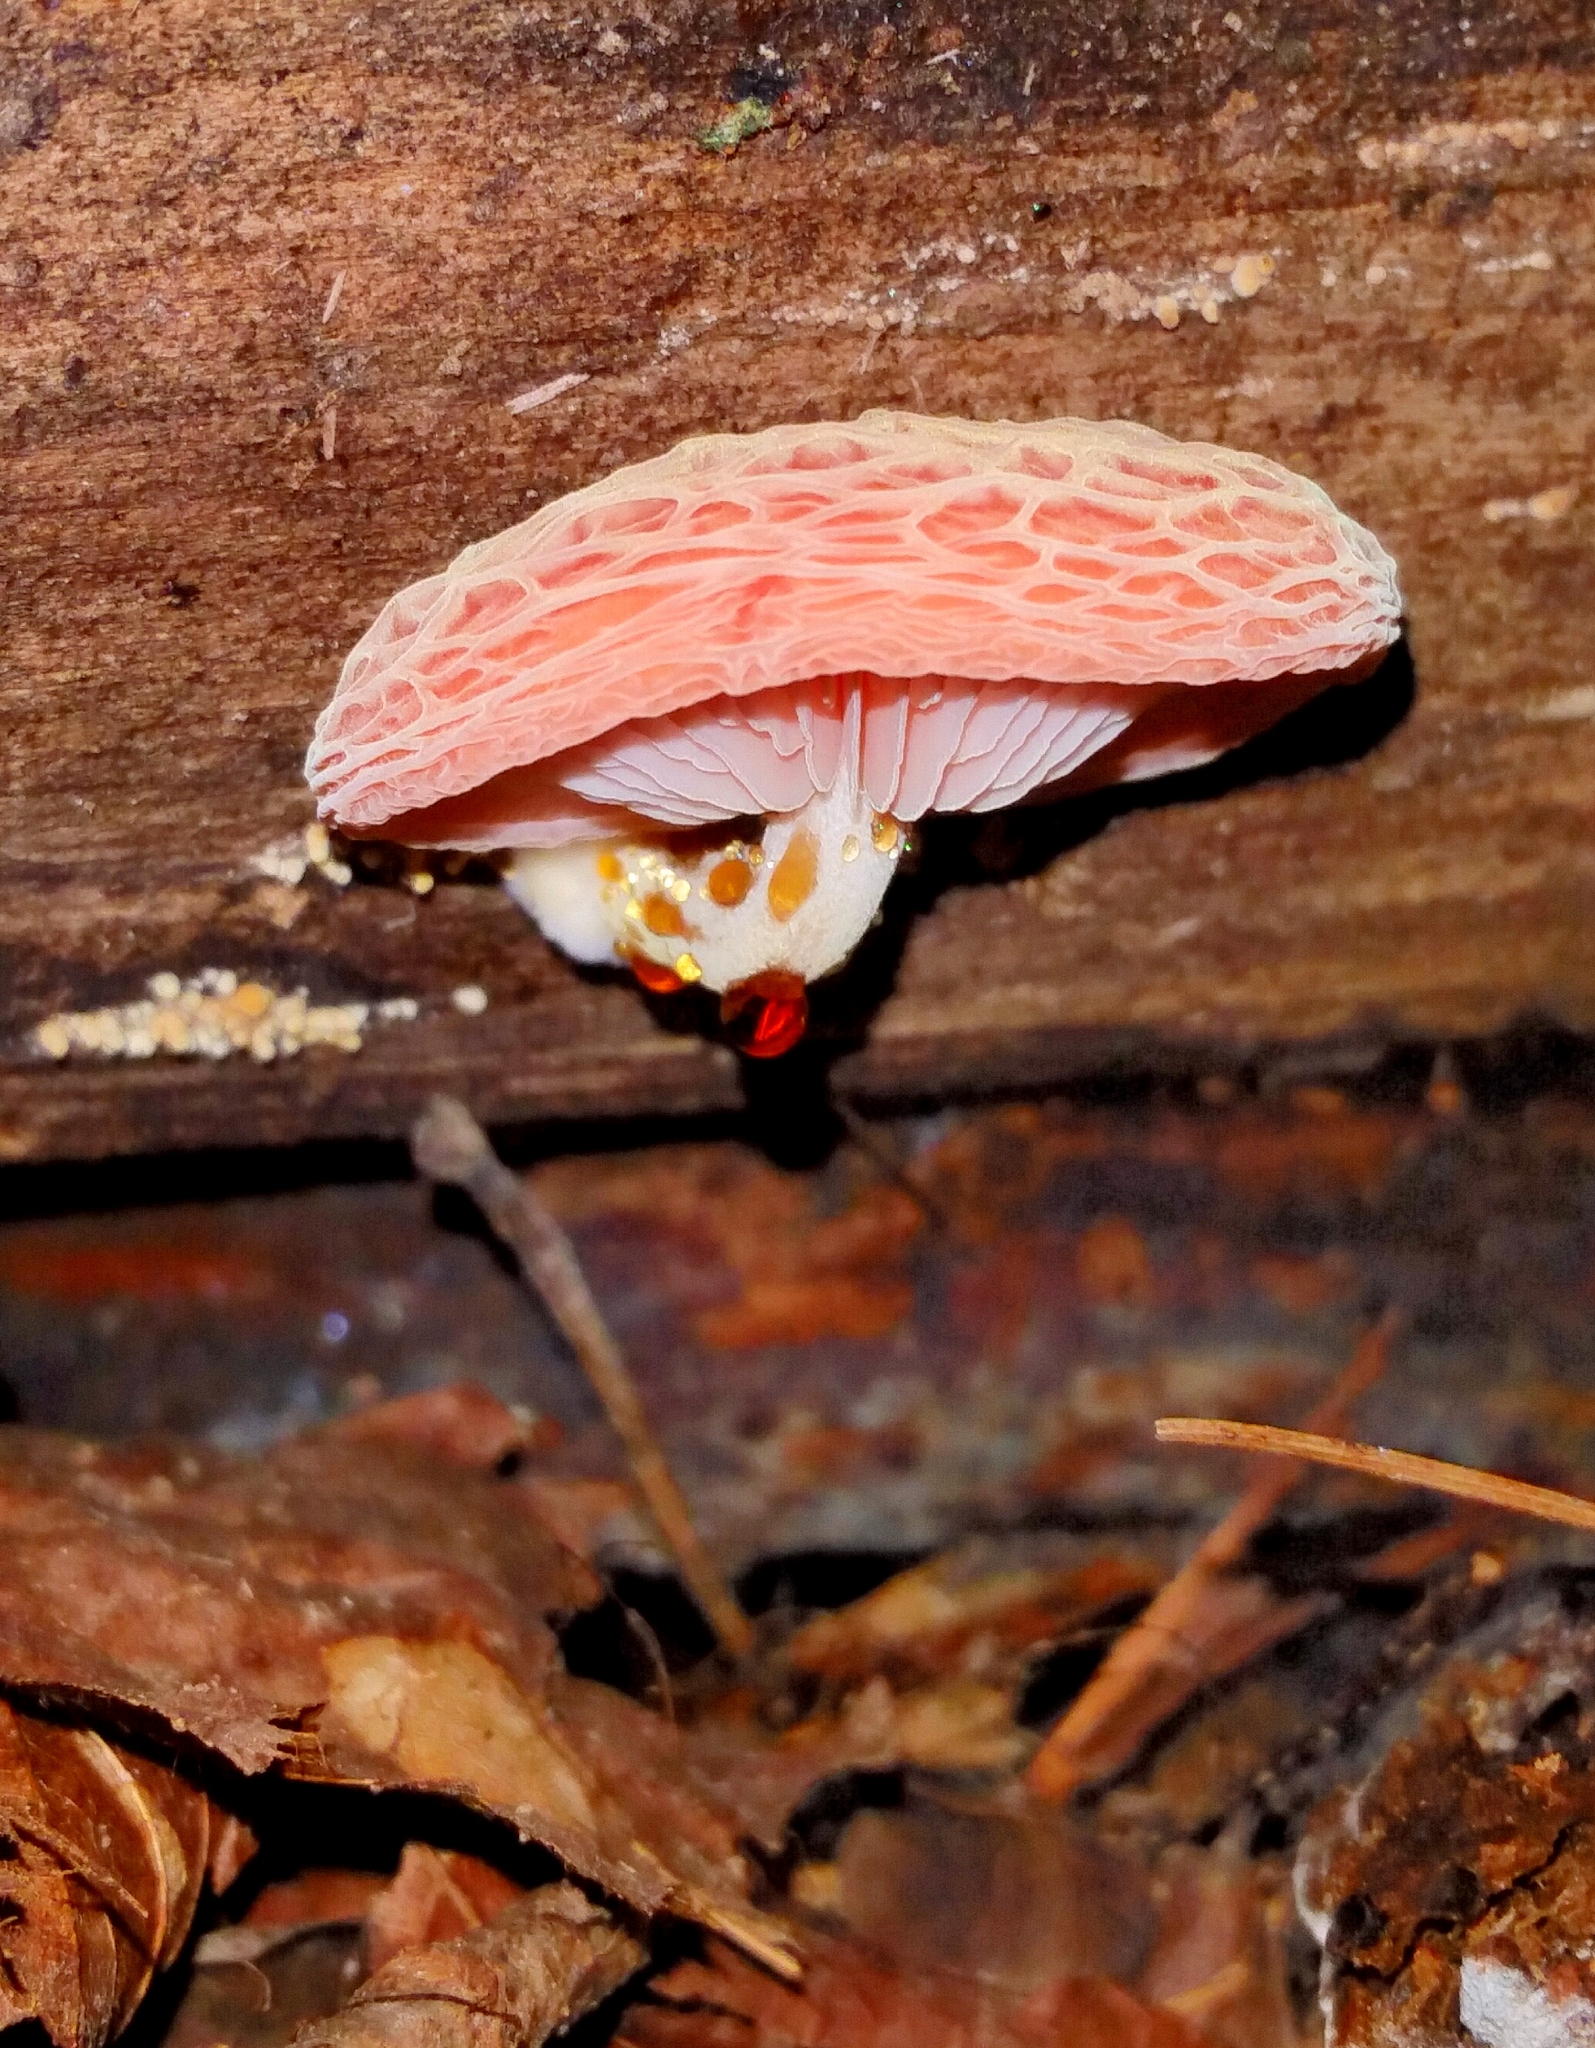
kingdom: Fungi
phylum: Basidiomycota
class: Agaricomycetes
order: Agaricales
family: Physalacriaceae
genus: Rhodotus
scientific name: Rhodotus palmatus
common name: Wrinkled peach
